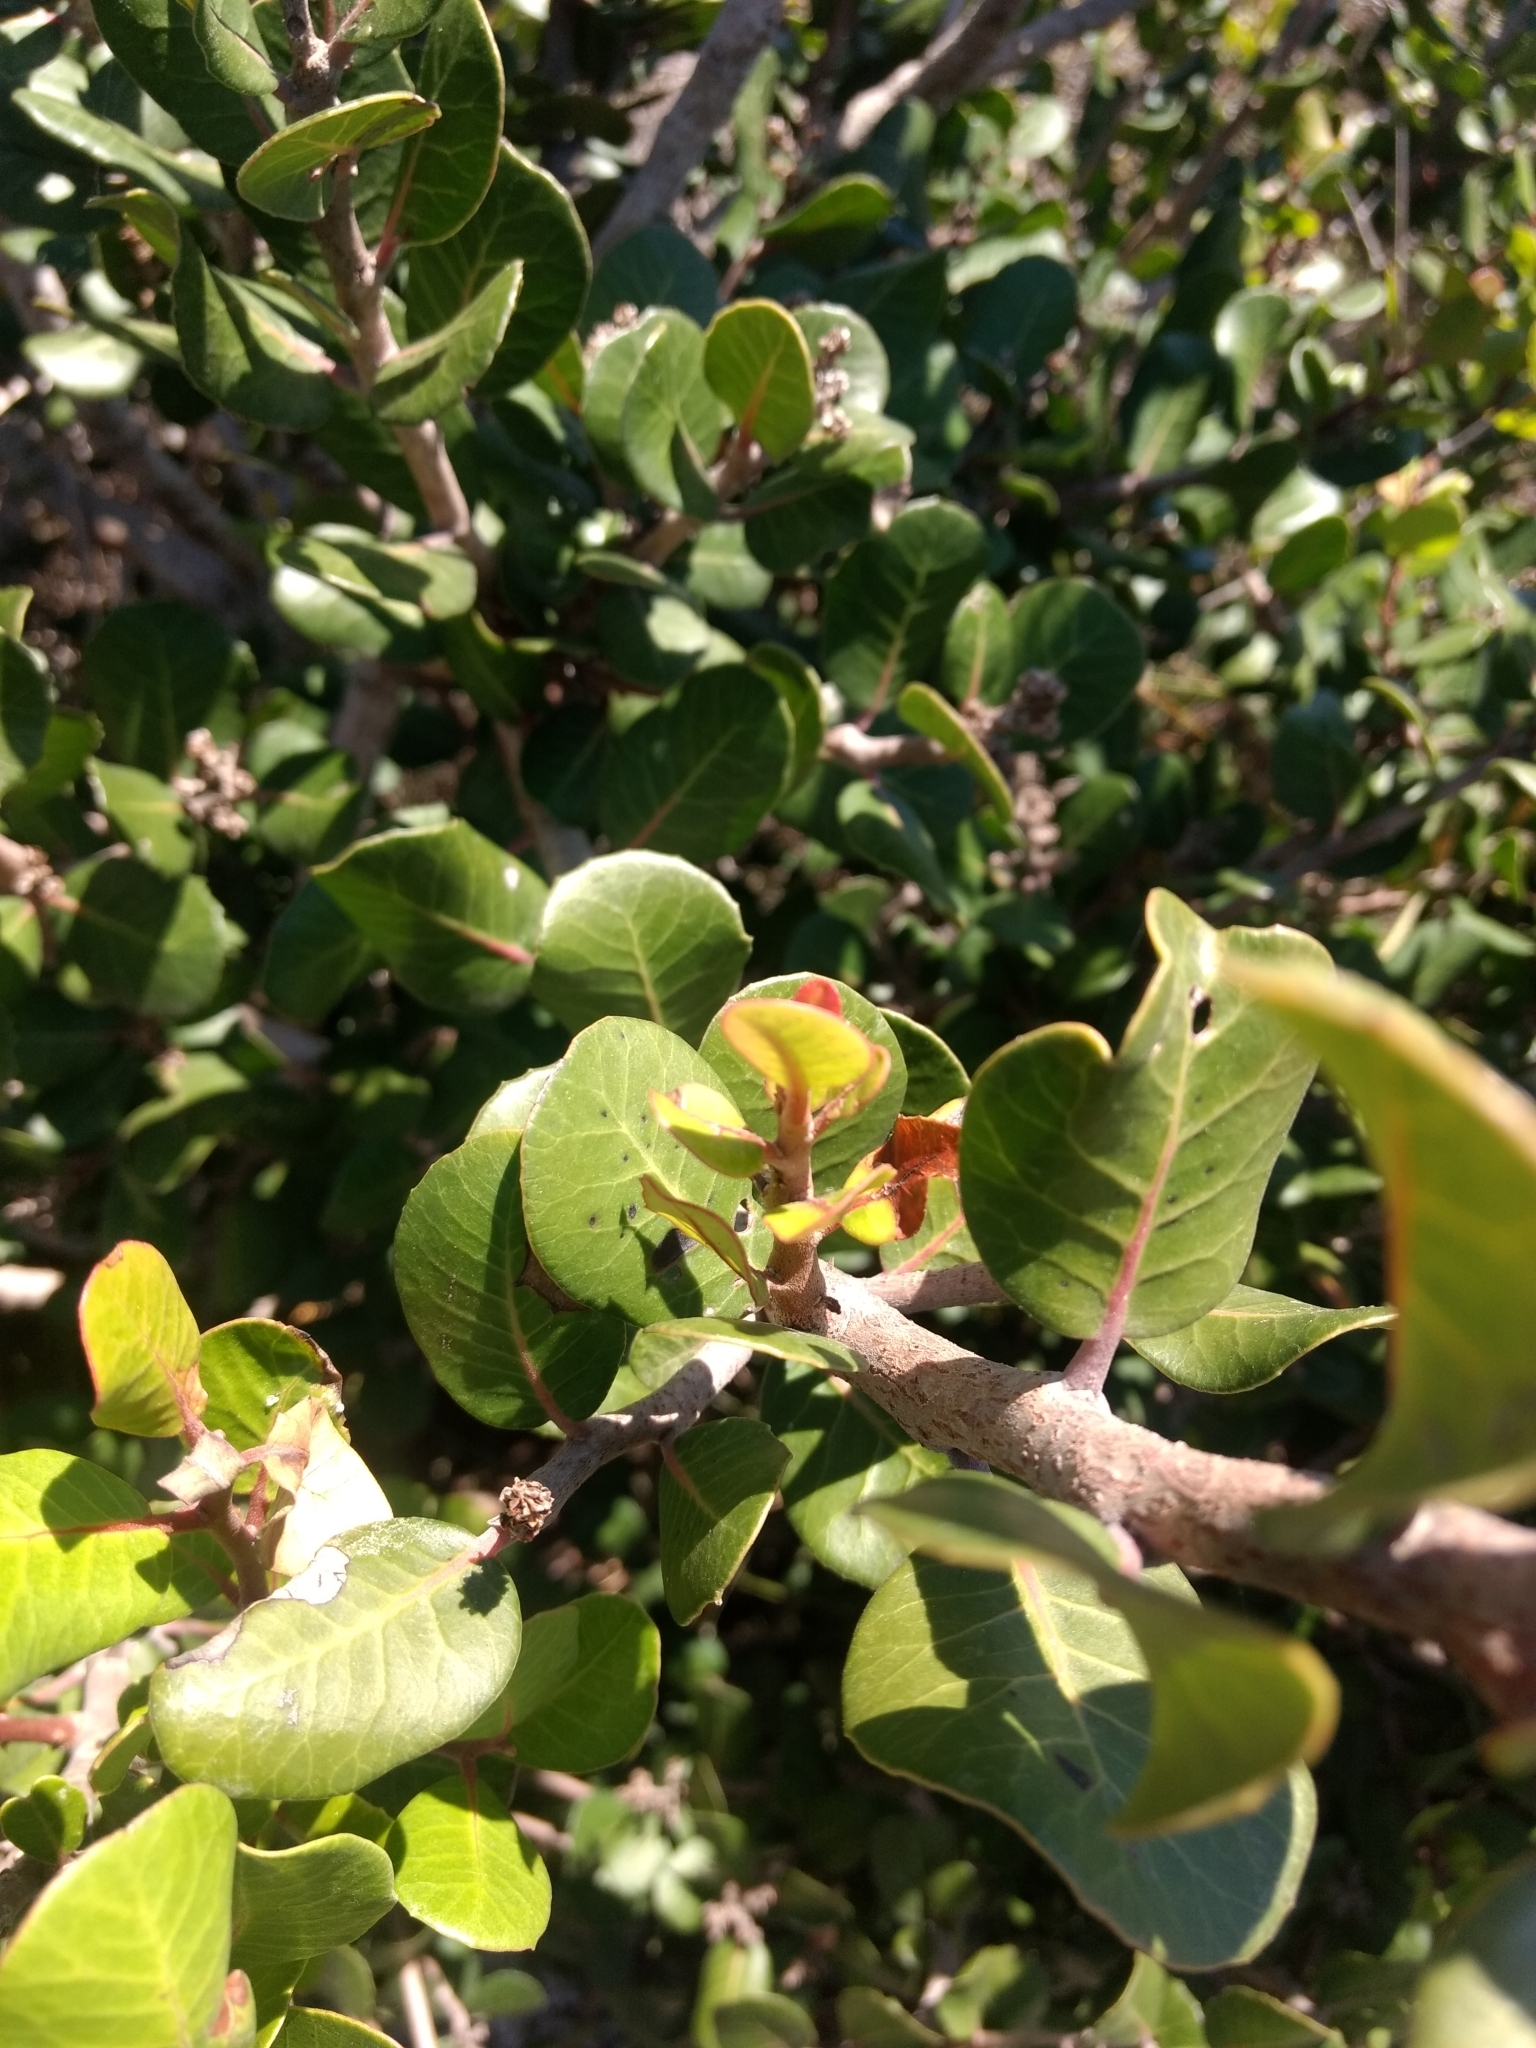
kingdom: Plantae
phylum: Tracheophyta
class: Magnoliopsida
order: Sapindales
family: Anacardiaceae
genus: Rhus
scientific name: Rhus integrifolia
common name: Lemonade sumac
